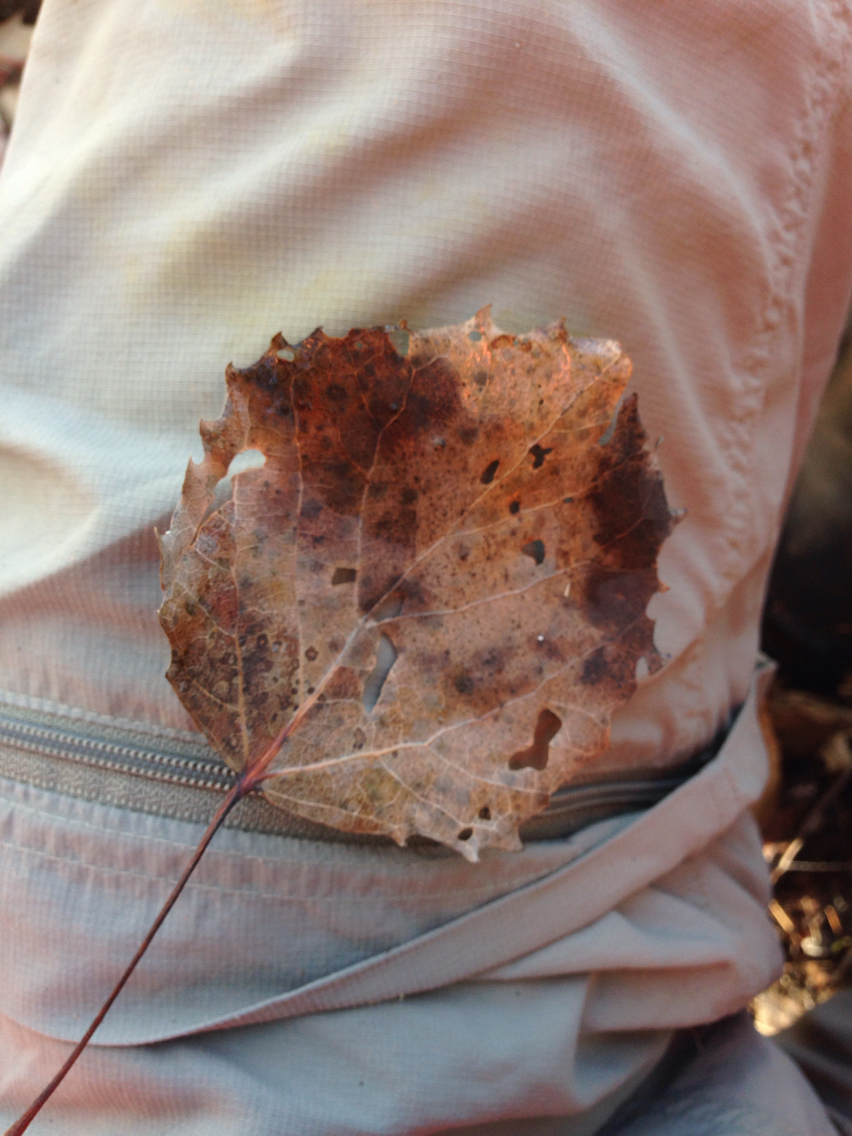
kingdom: Plantae
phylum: Tracheophyta
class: Magnoliopsida
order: Malpighiales
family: Salicaceae
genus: Populus
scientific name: Populus grandidentata
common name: Bigtooth aspen
